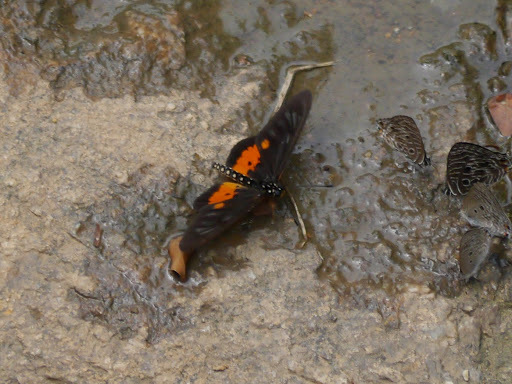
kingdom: Animalia
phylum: Arthropoda
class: Insecta
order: Lepidoptera
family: Nymphalidae
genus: Acraea
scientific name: Acraea
